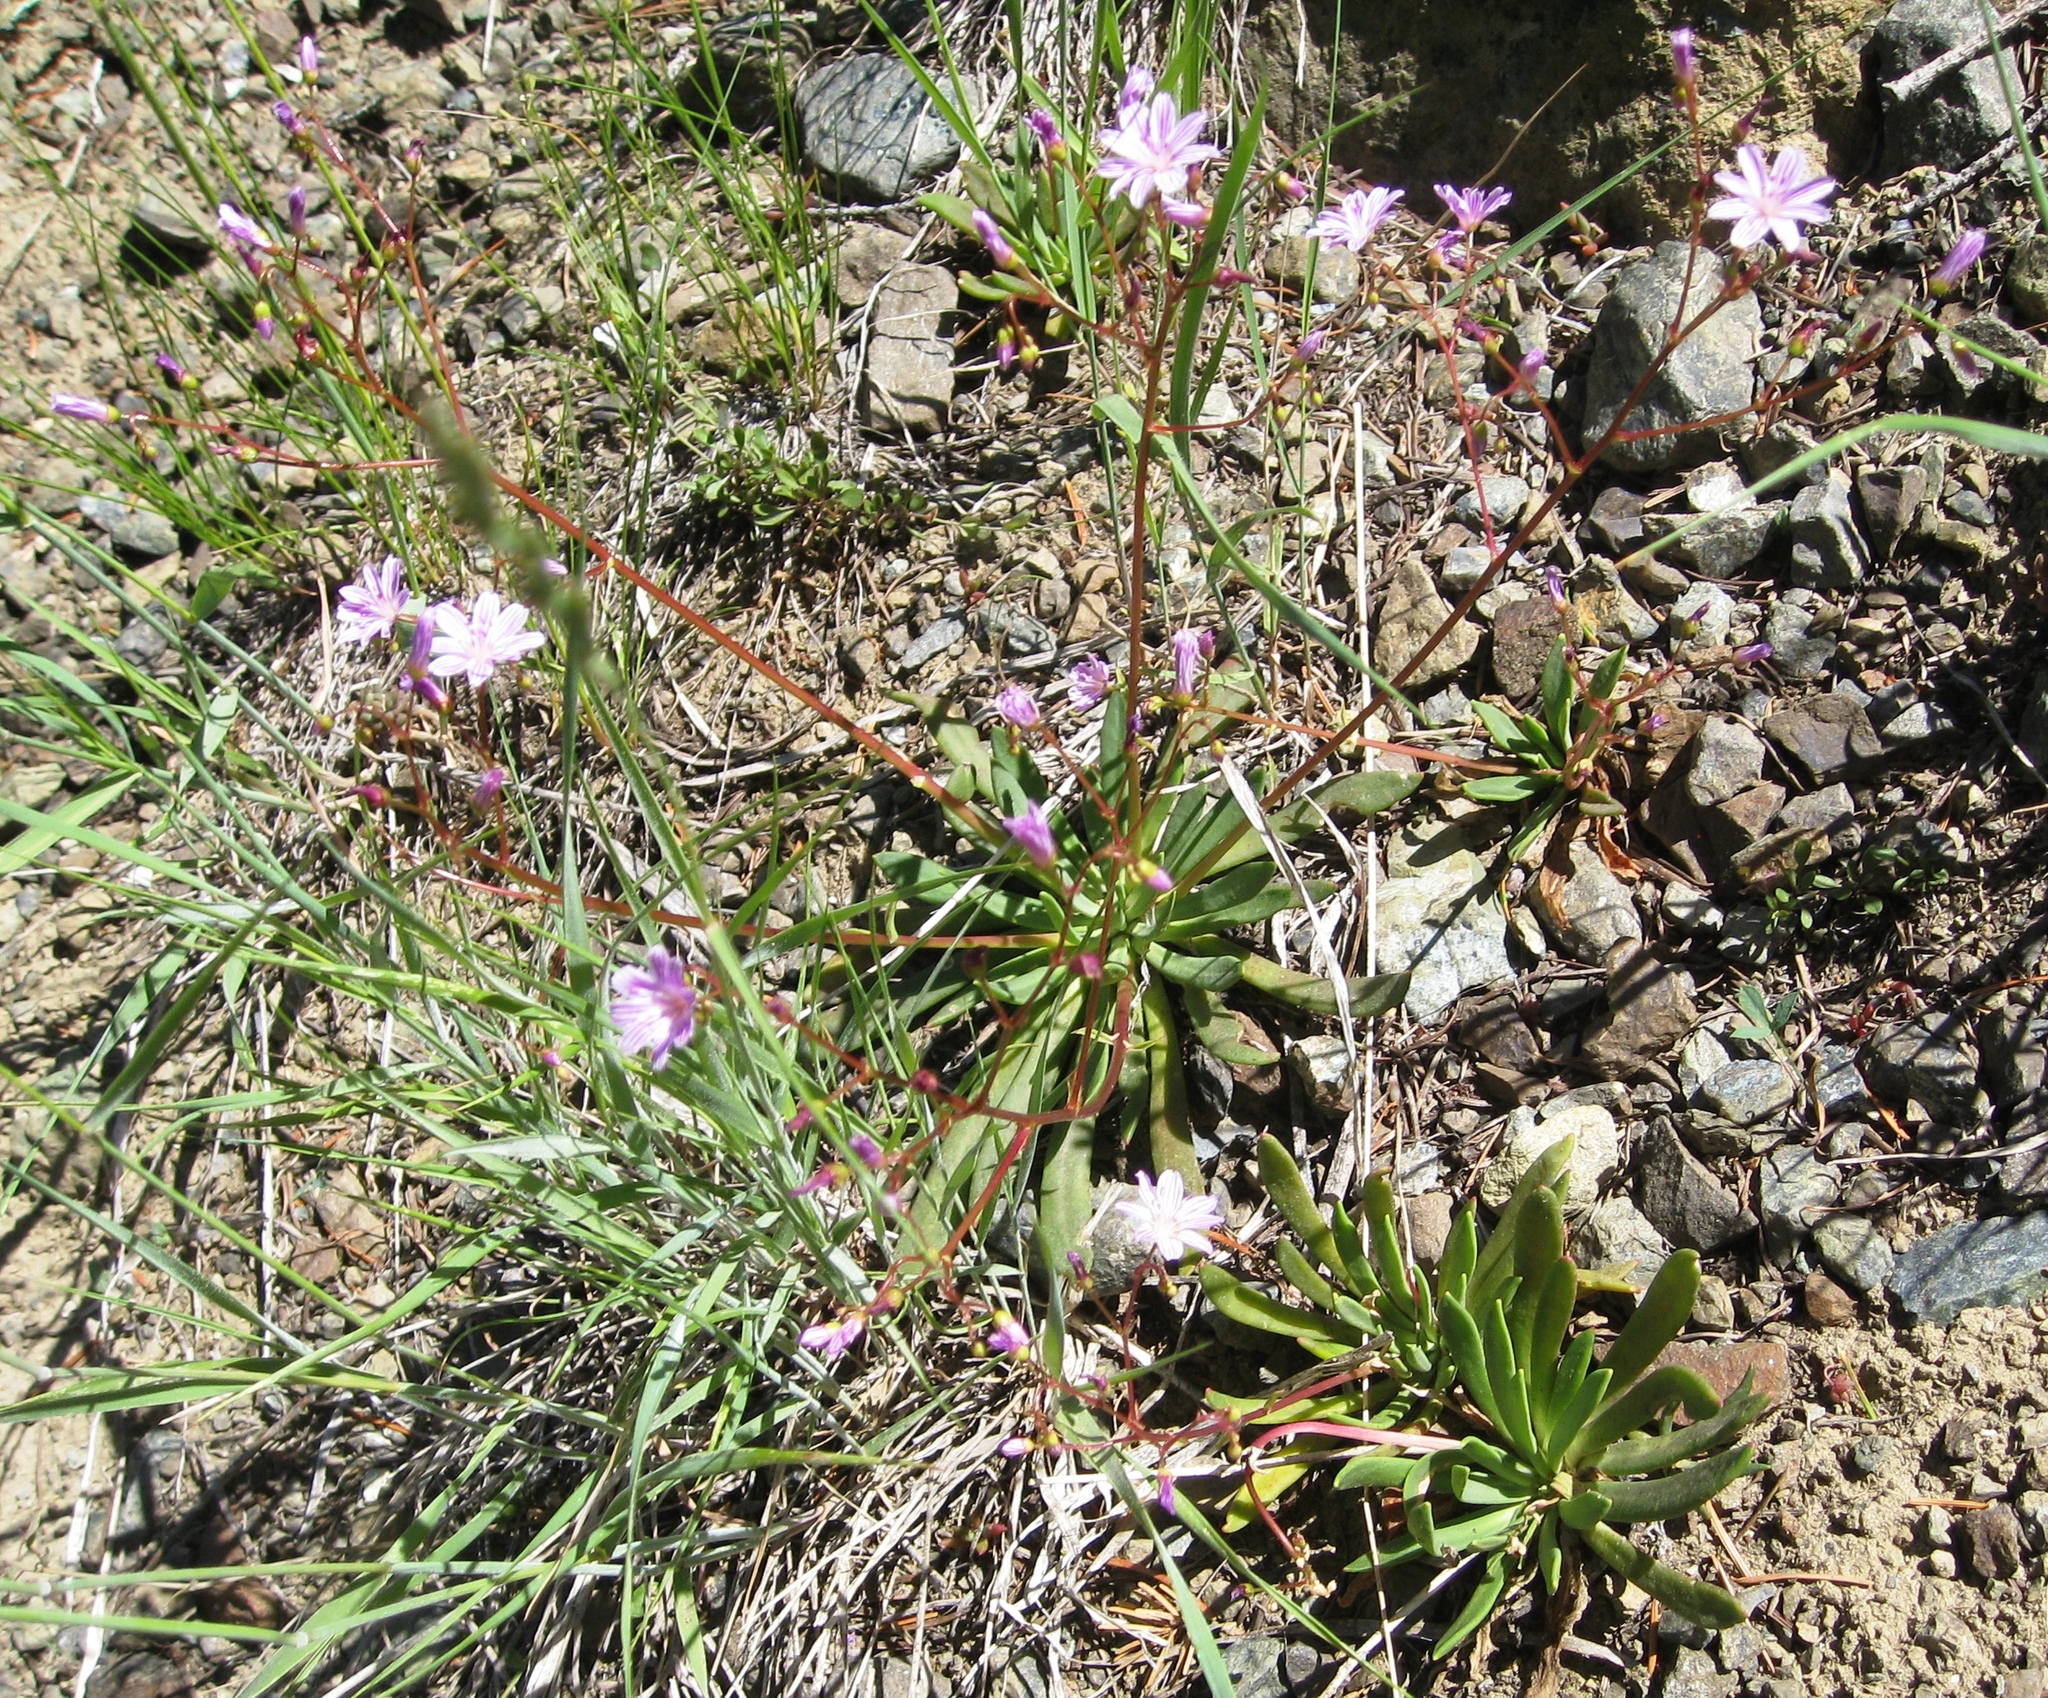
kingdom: Plantae
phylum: Tracheophyta
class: Magnoliopsida
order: Caryophyllales
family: Montiaceae
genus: Lewisia
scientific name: Lewisia columbiana
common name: Columbia lewisia
